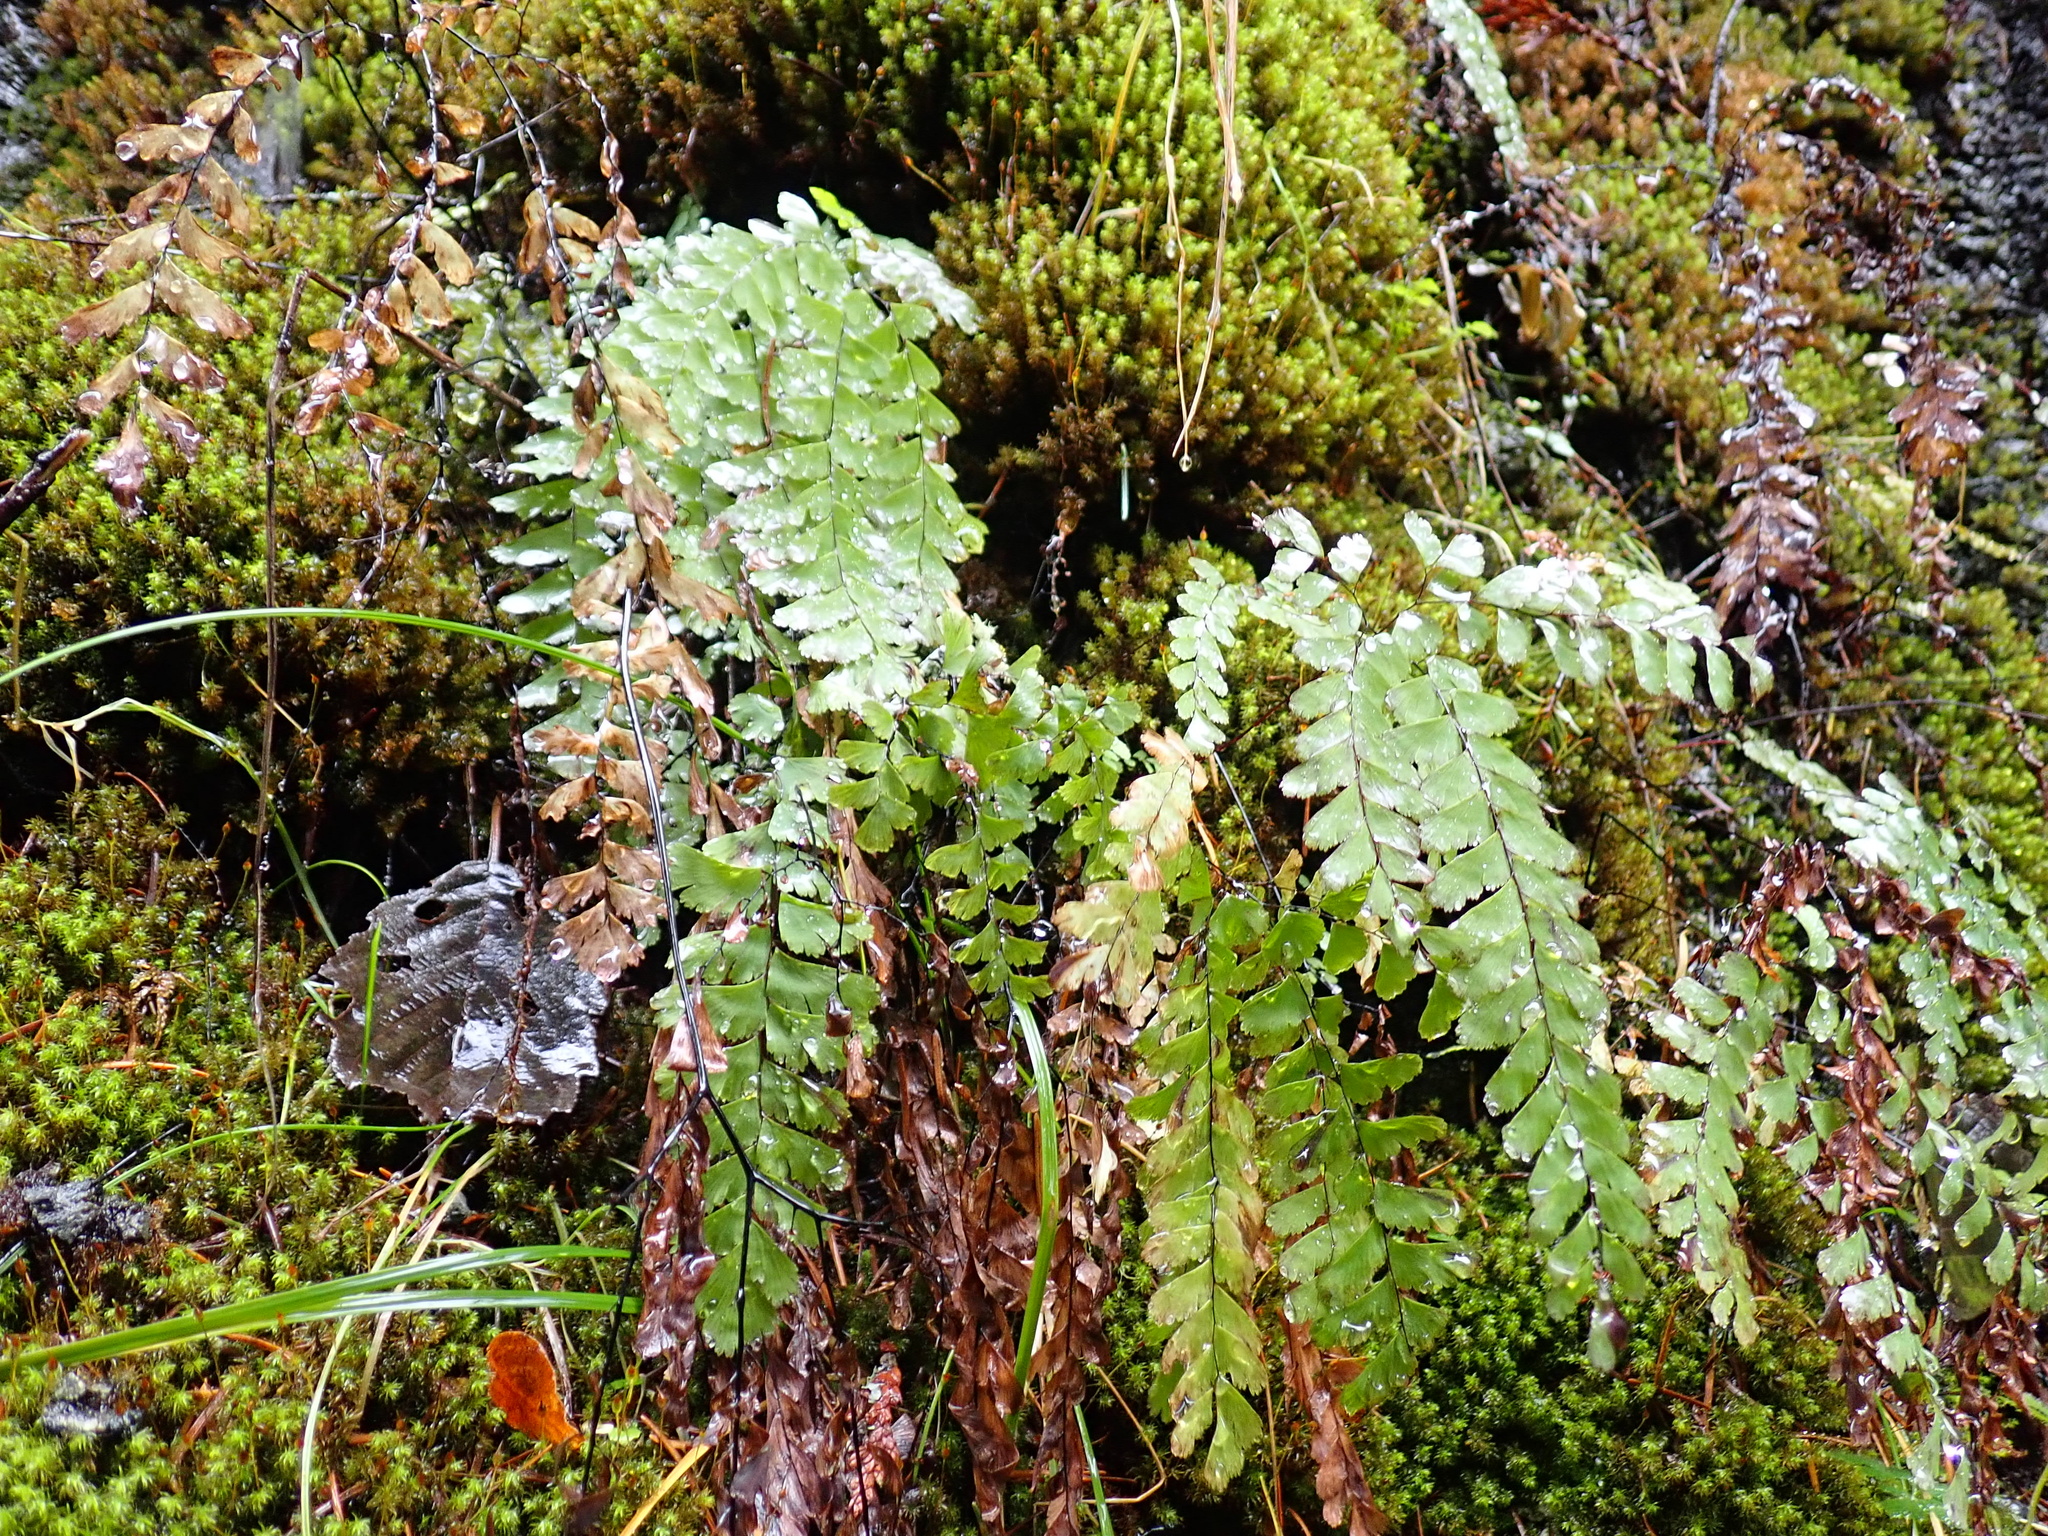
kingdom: Plantae
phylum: Tracheophyta
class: Polypodiopsida
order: Polypodiales
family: Pteridaceae
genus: Adiantum
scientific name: Adiantum aleuticum
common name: Aleutian maidenhair fern
